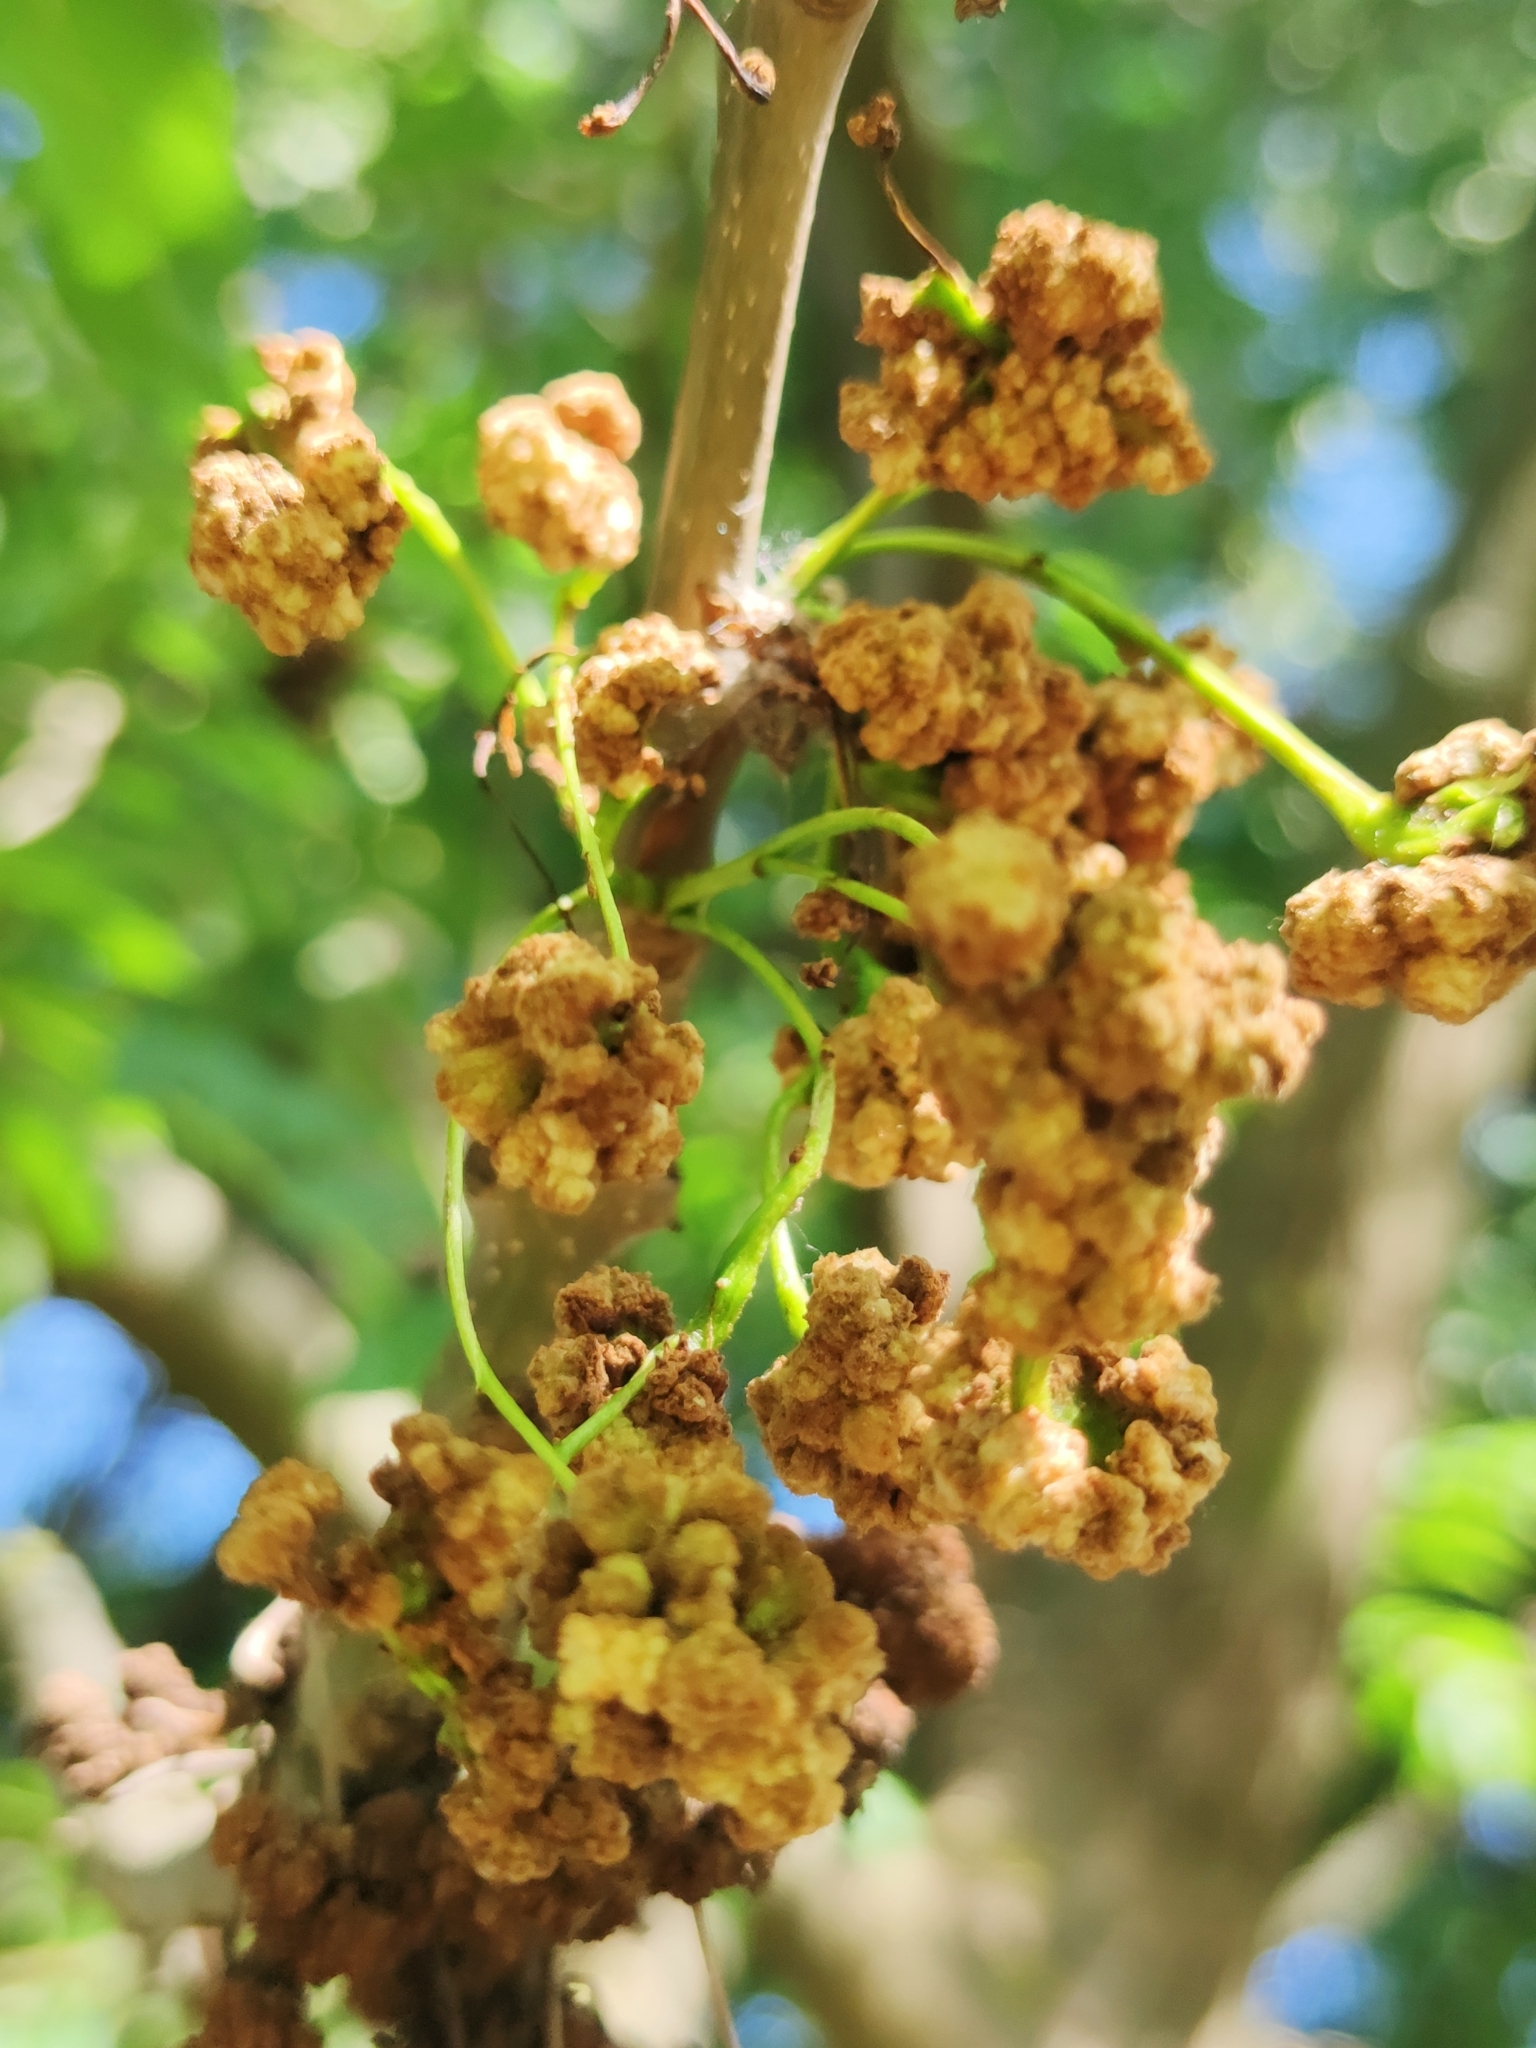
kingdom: Animalia
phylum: Arthropoda
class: Arachnida
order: Trombidiformes
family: Eriophyidae
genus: Aceria
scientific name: Aceria fraxinivora
